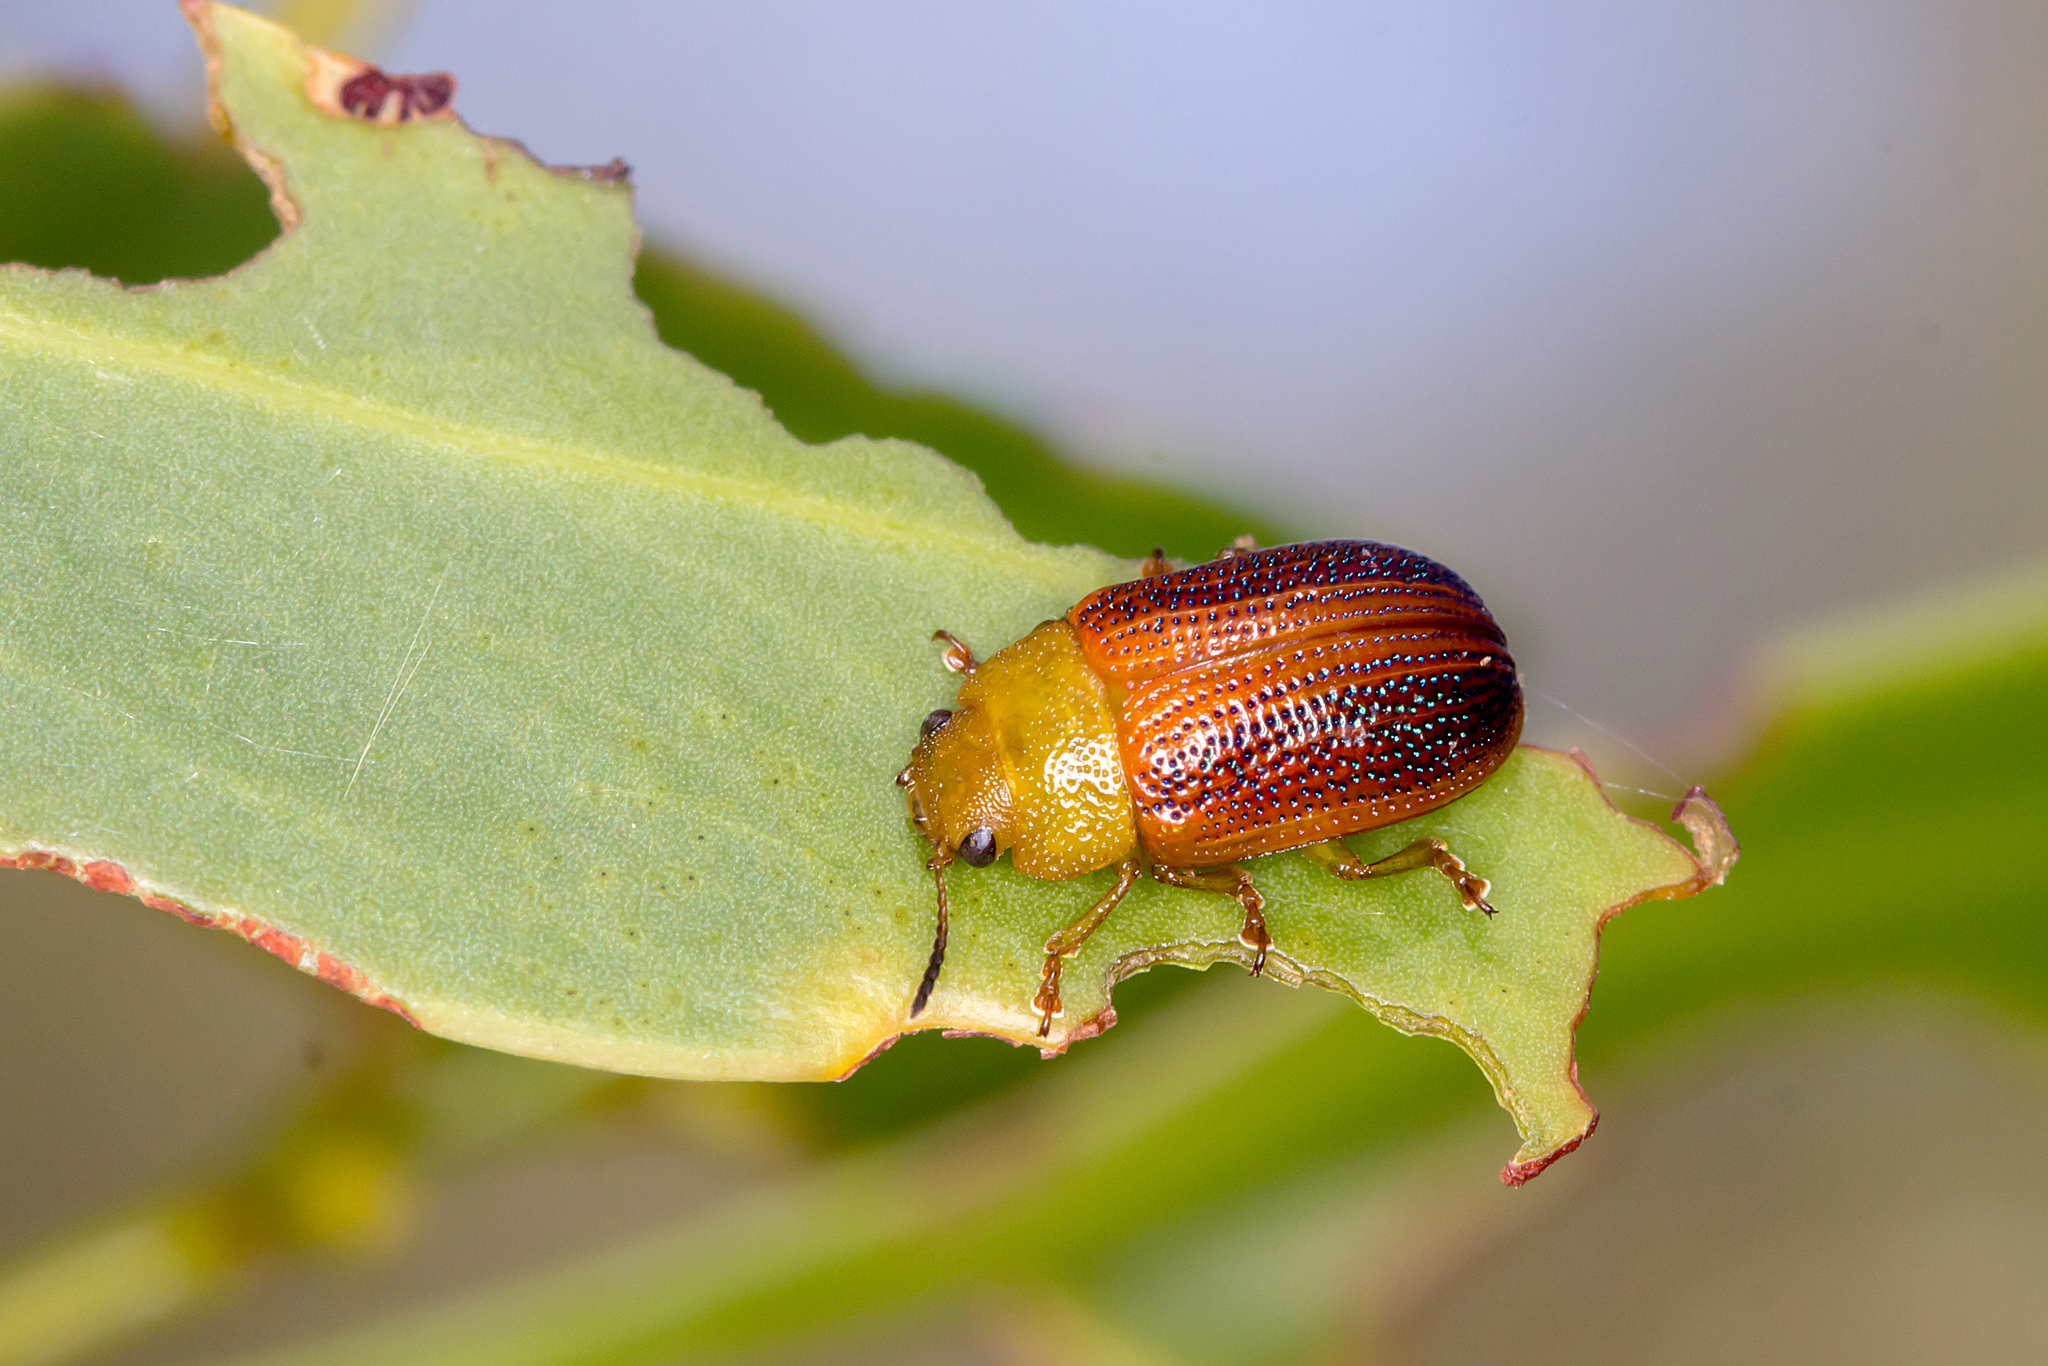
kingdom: Animalia
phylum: Arthropoda
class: Insecta
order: Coleoptera
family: Chrysomelidae
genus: Calomela
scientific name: Calomela
